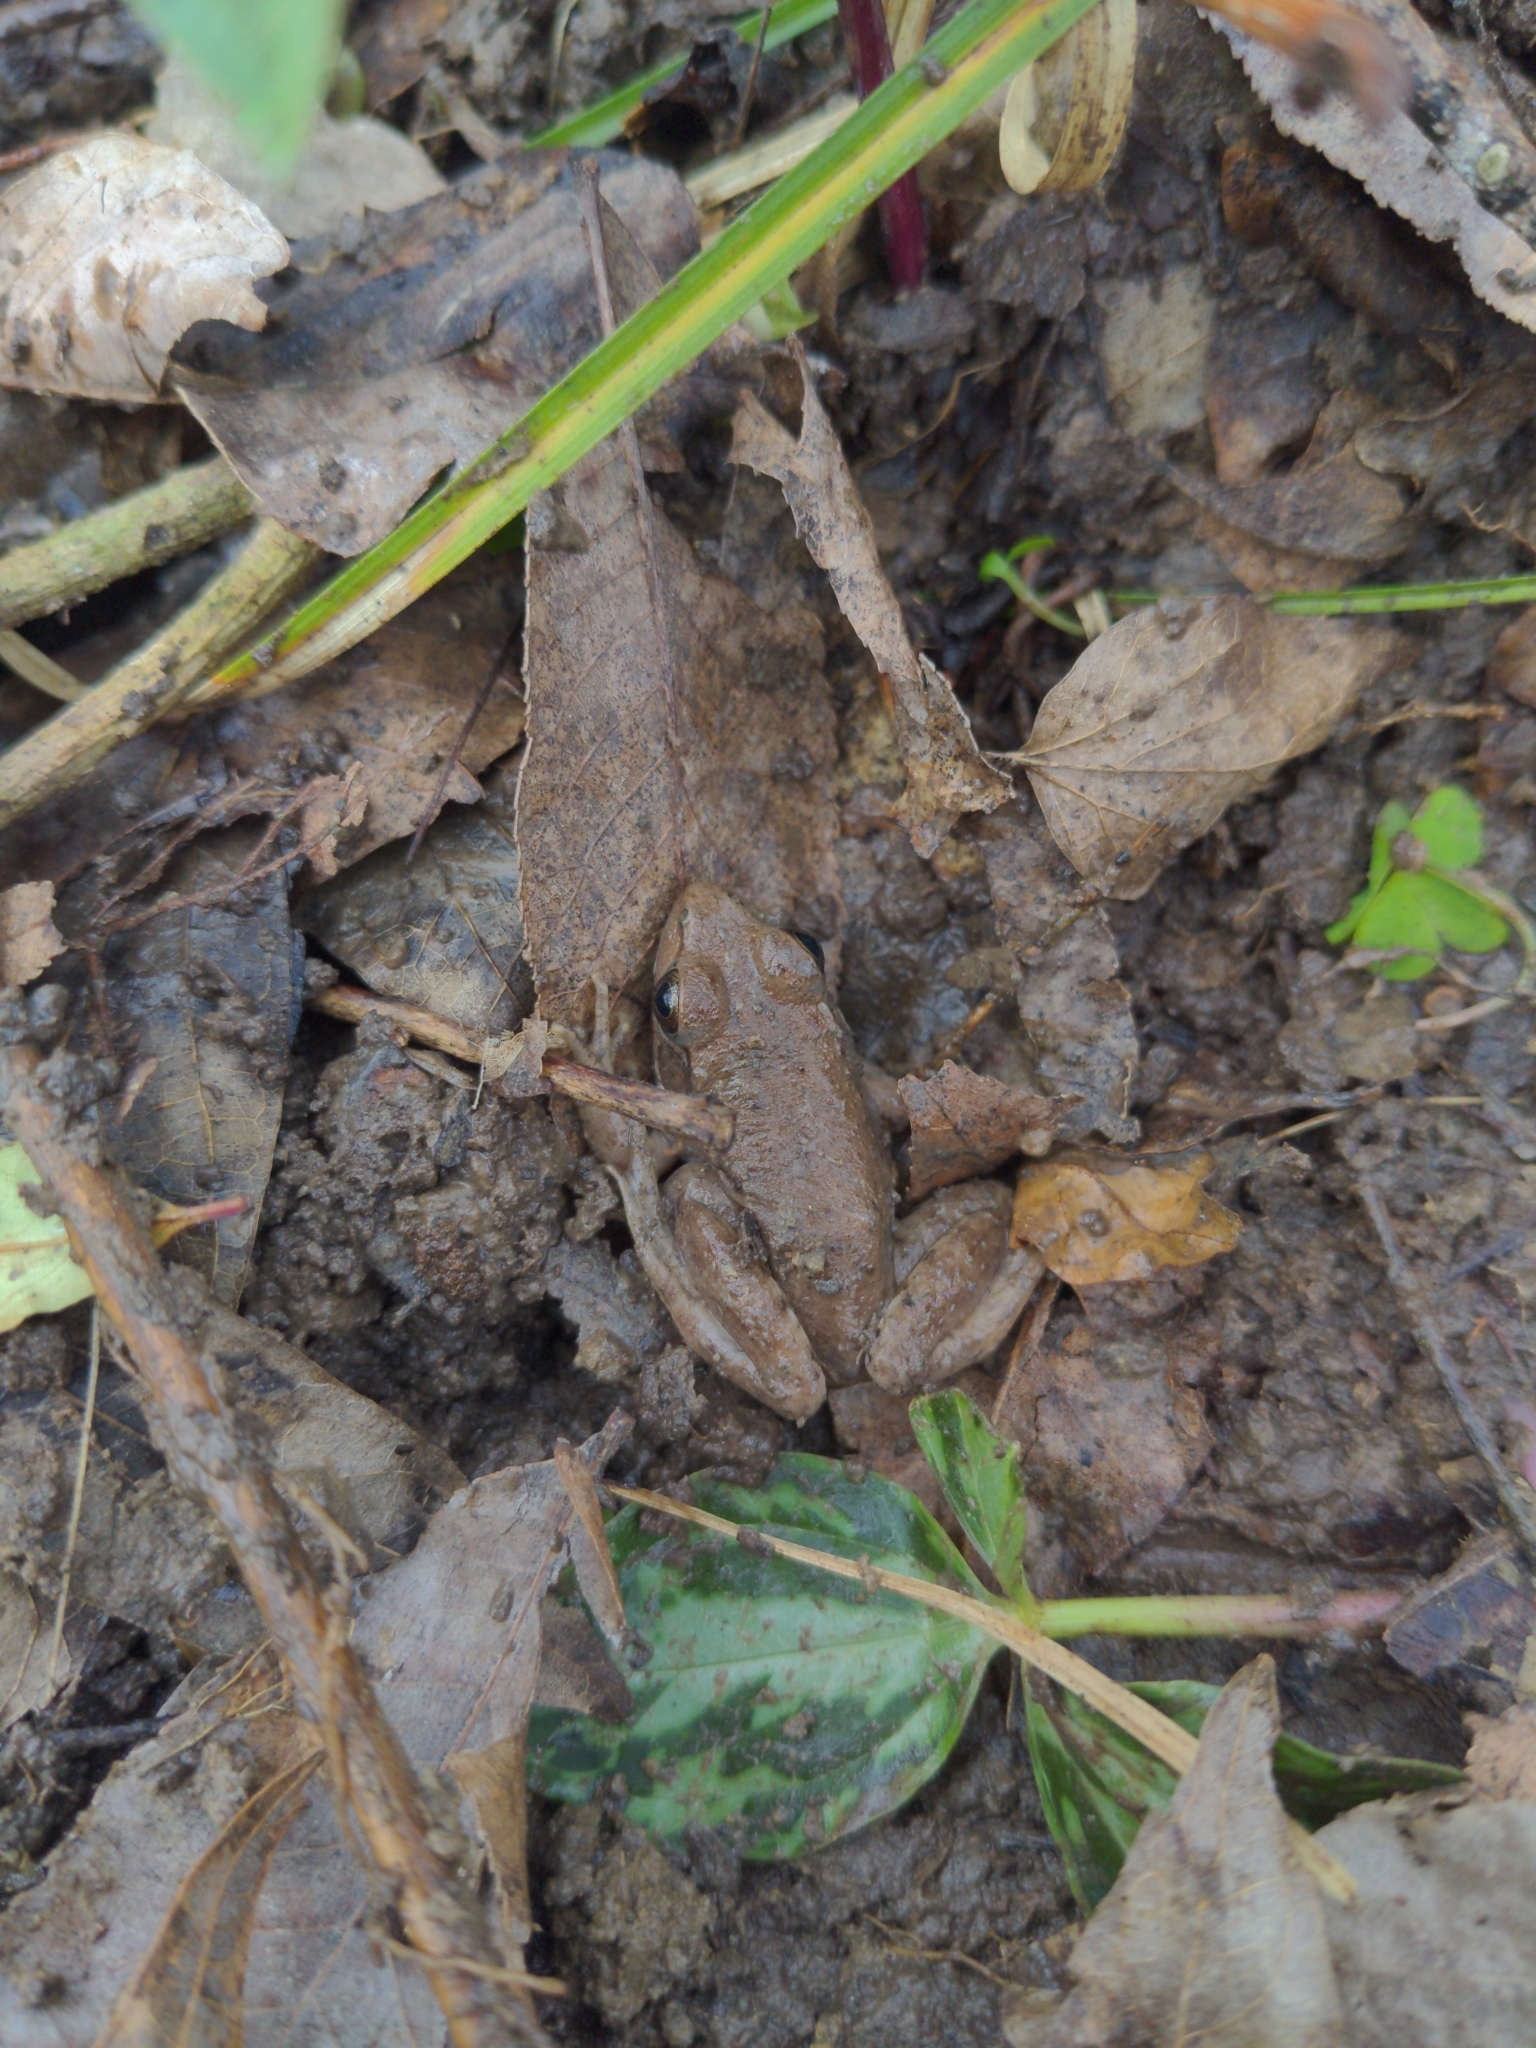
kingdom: Animalia
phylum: Chordata
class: Amphibia
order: Anura
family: Ranidae
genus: Lithobates
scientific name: Lithobates clamitans
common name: Green frog
